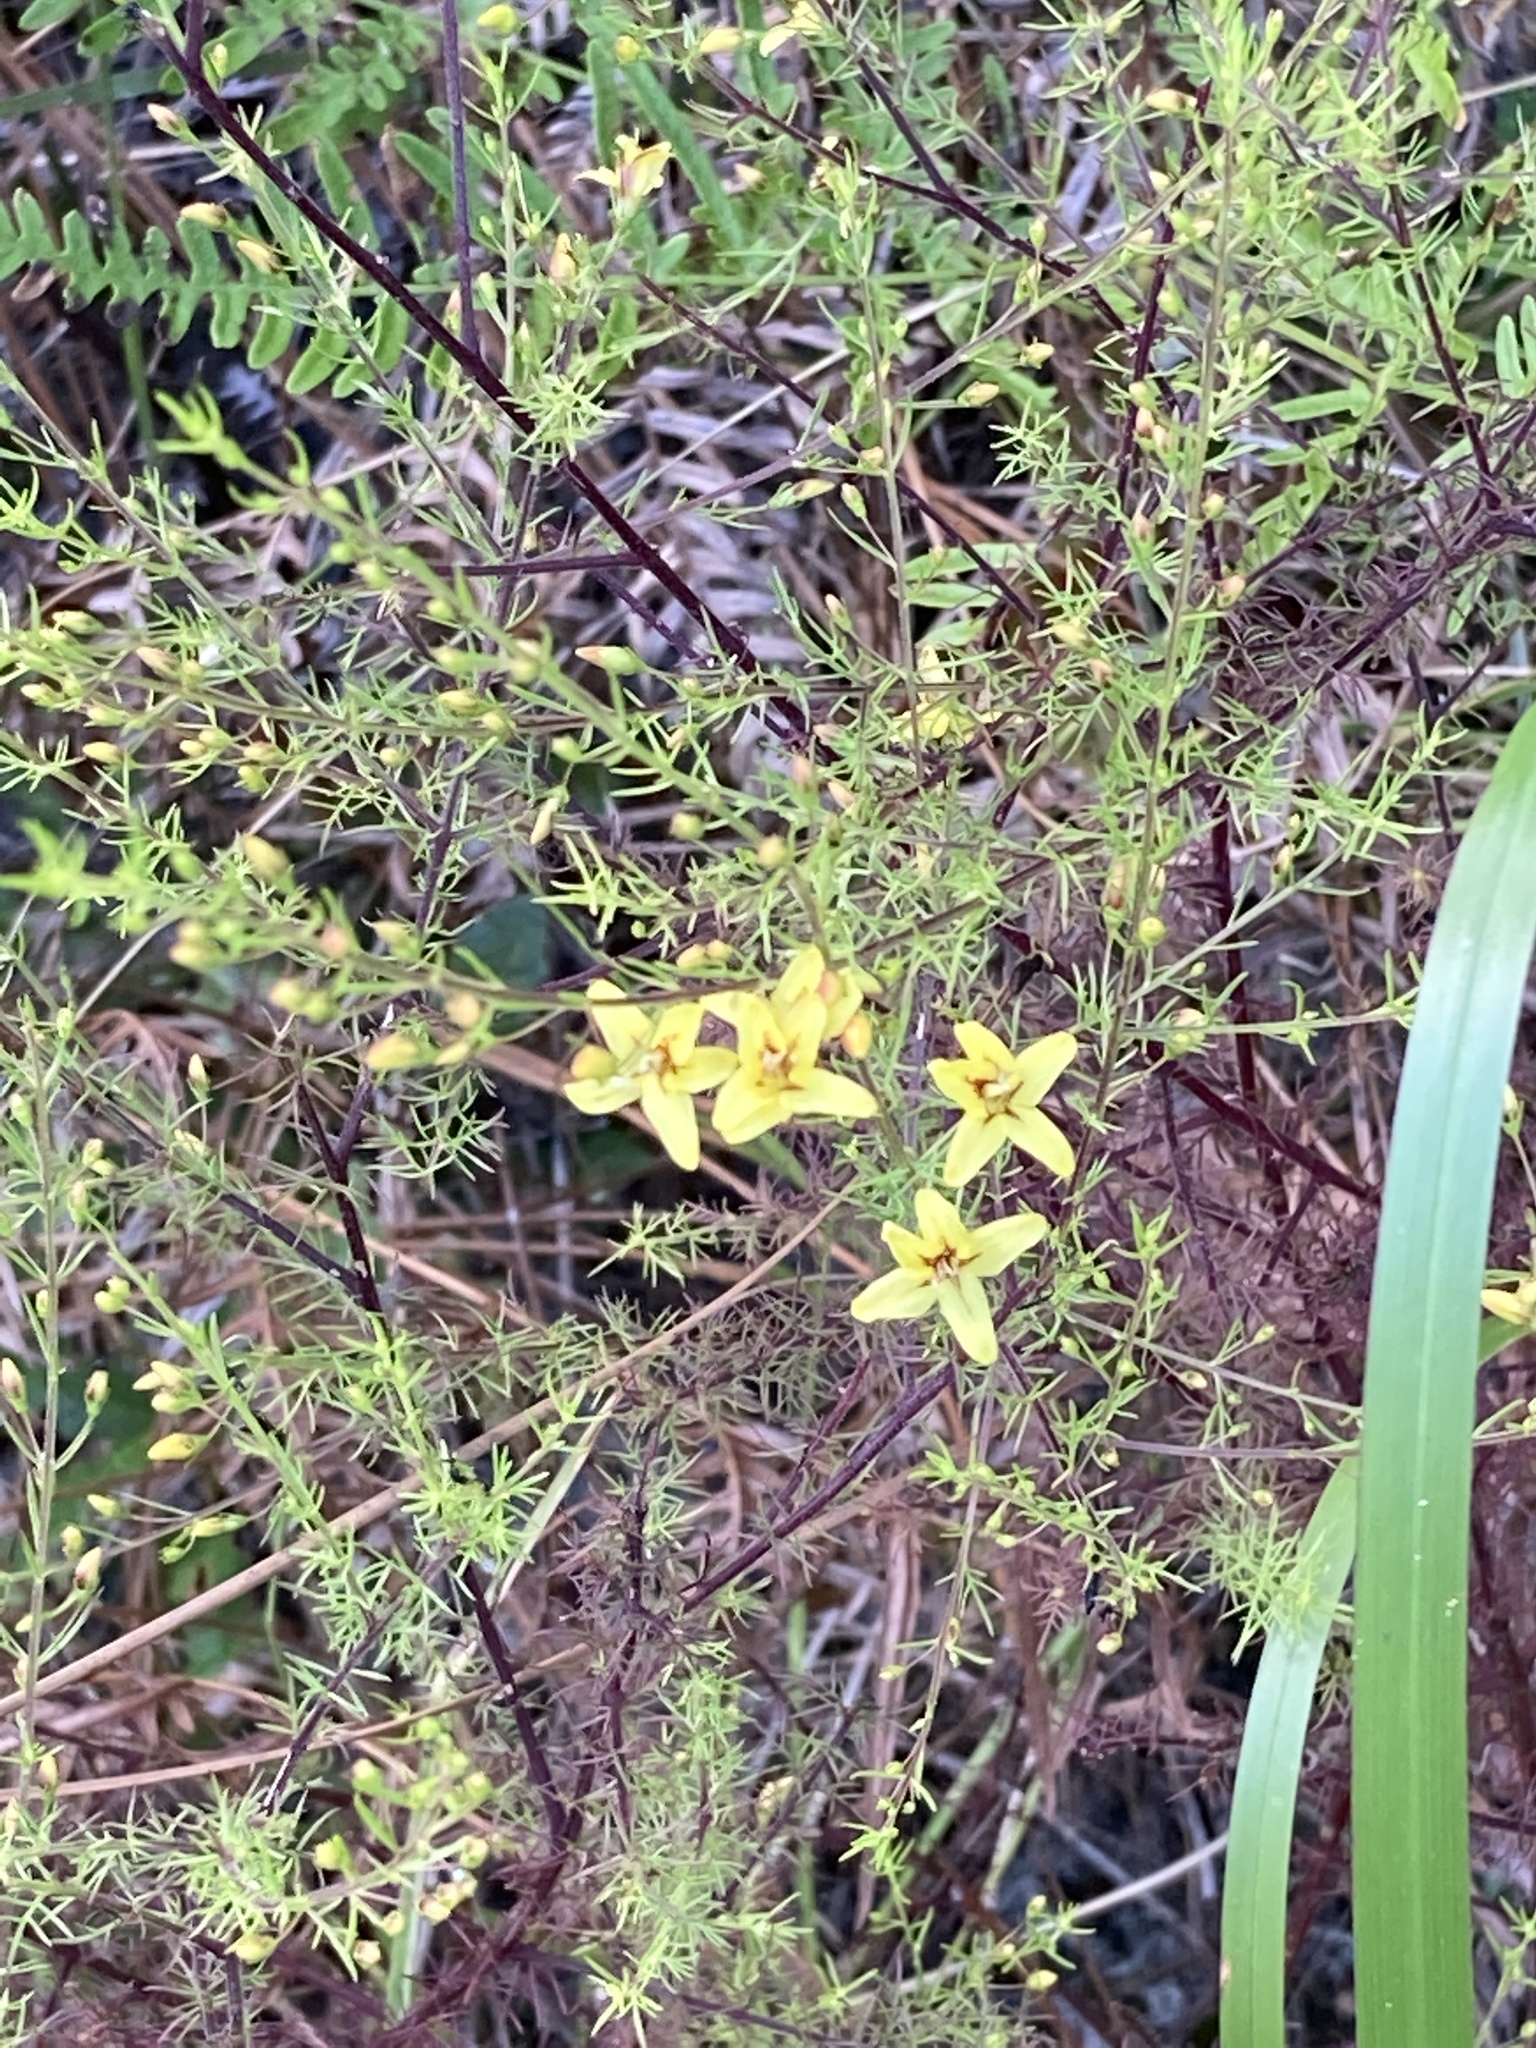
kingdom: Plantae
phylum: Tracheophyta
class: Magnoliopsida
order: Lamiales
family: Orobanchaceae
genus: Seymeria
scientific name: Seymeria cassioides
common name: Yaupon black-senna
